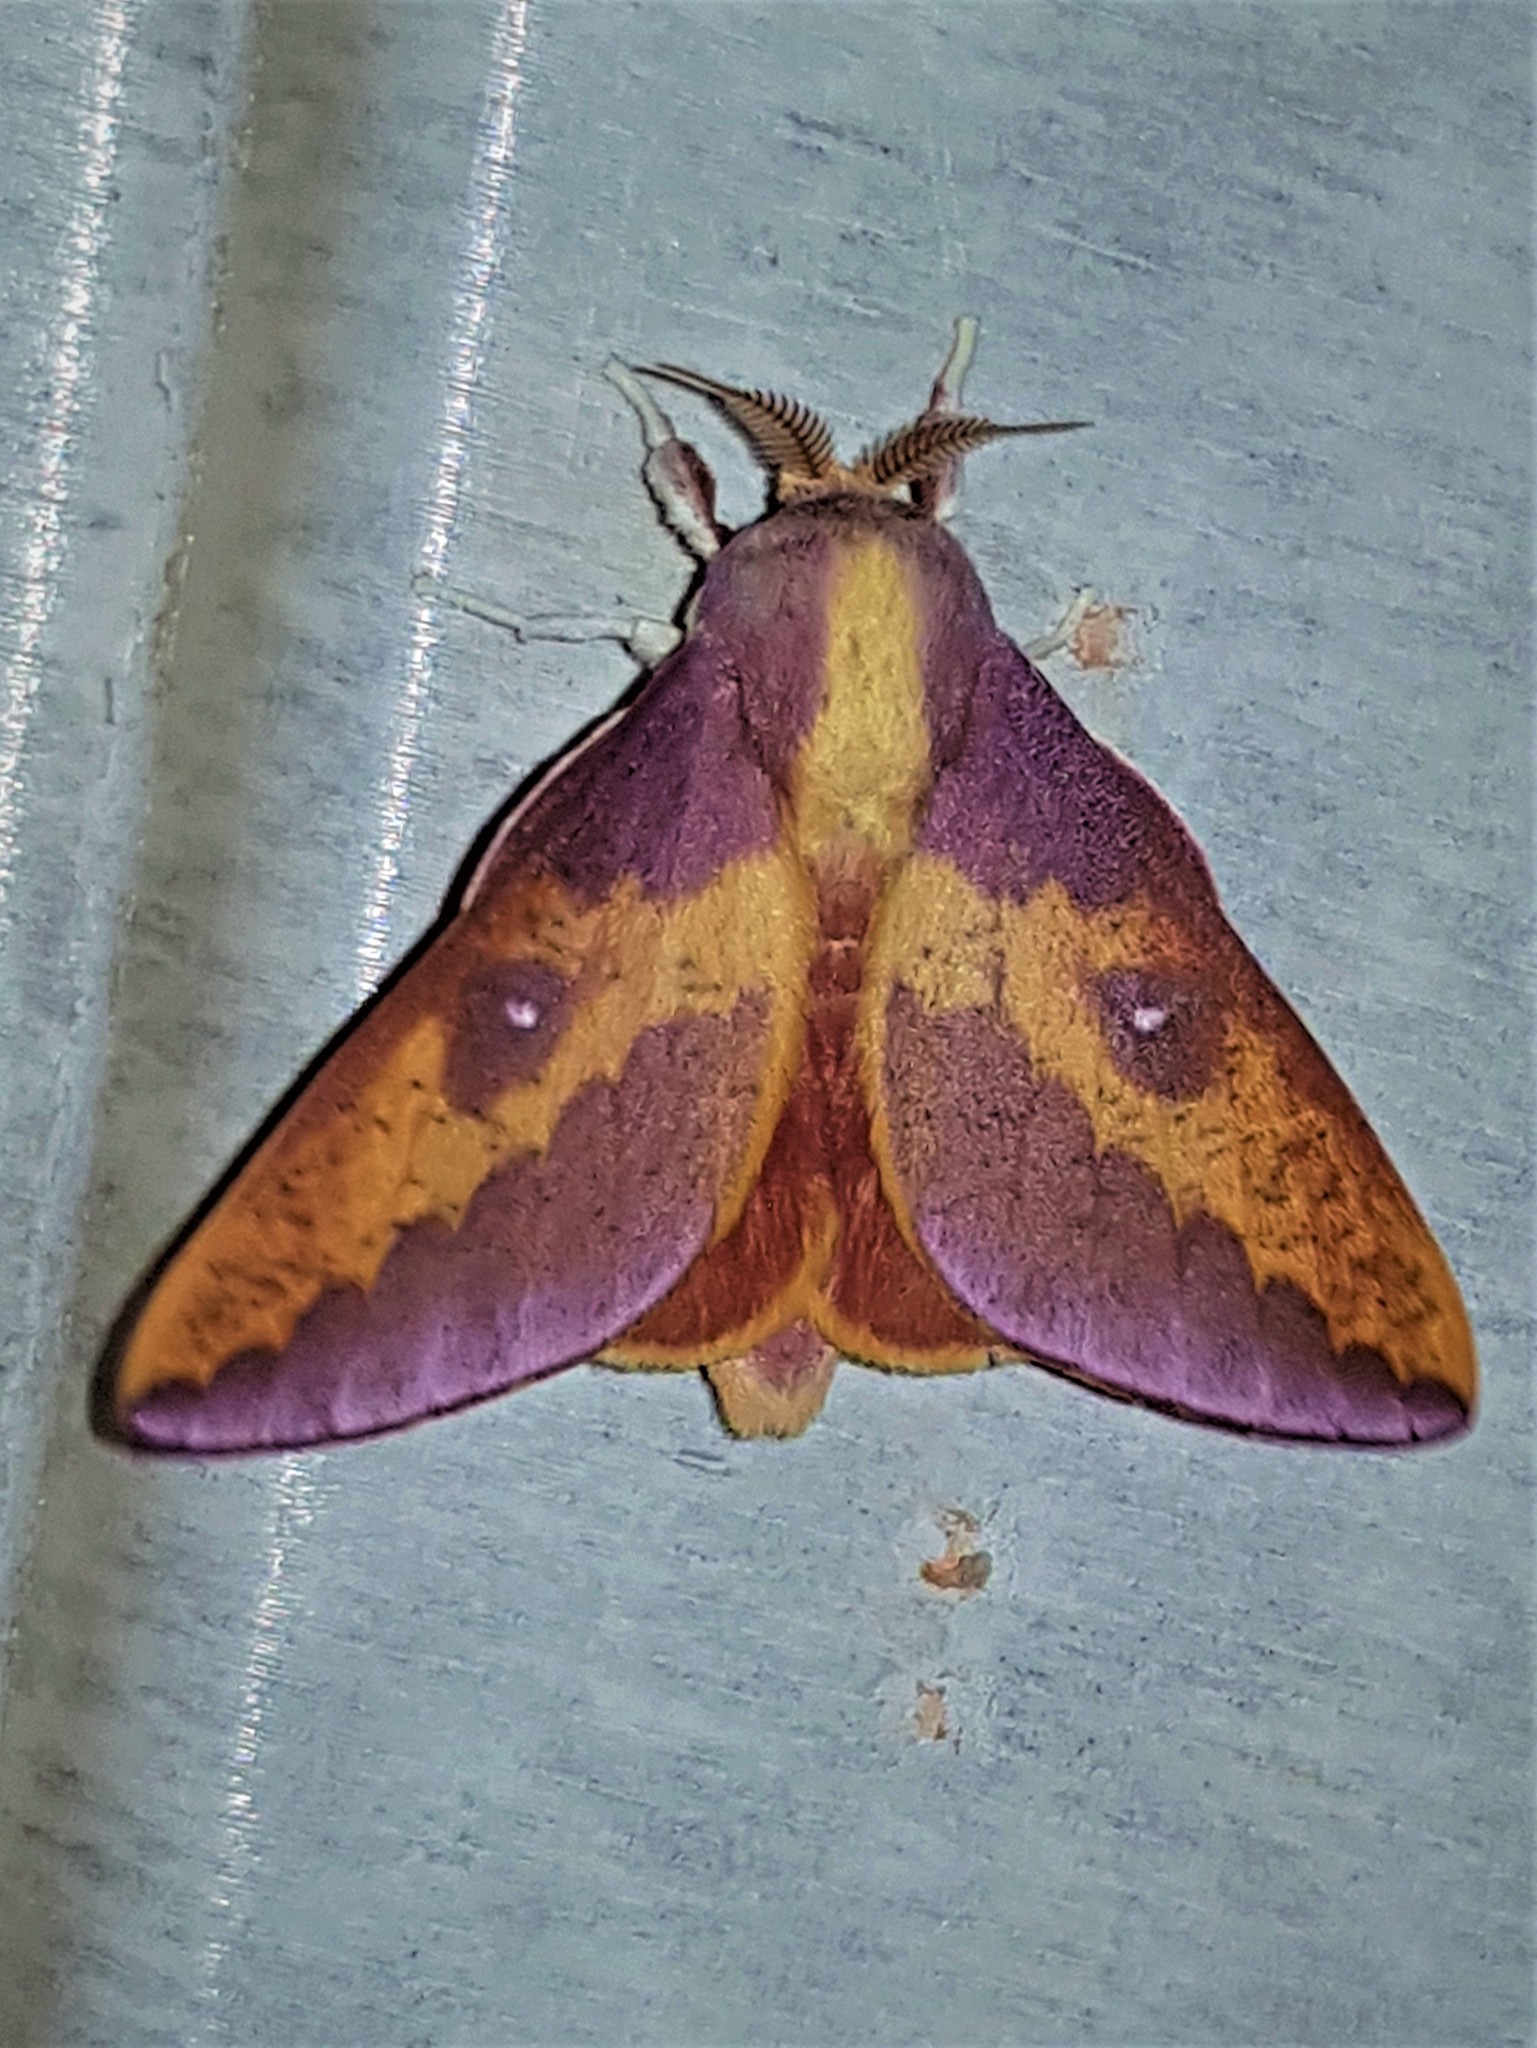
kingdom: Animalia
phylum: Arthropoda
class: Insecta
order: Lepidoptera
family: Saturniidae
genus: Cicia
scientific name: Cicia pelota
